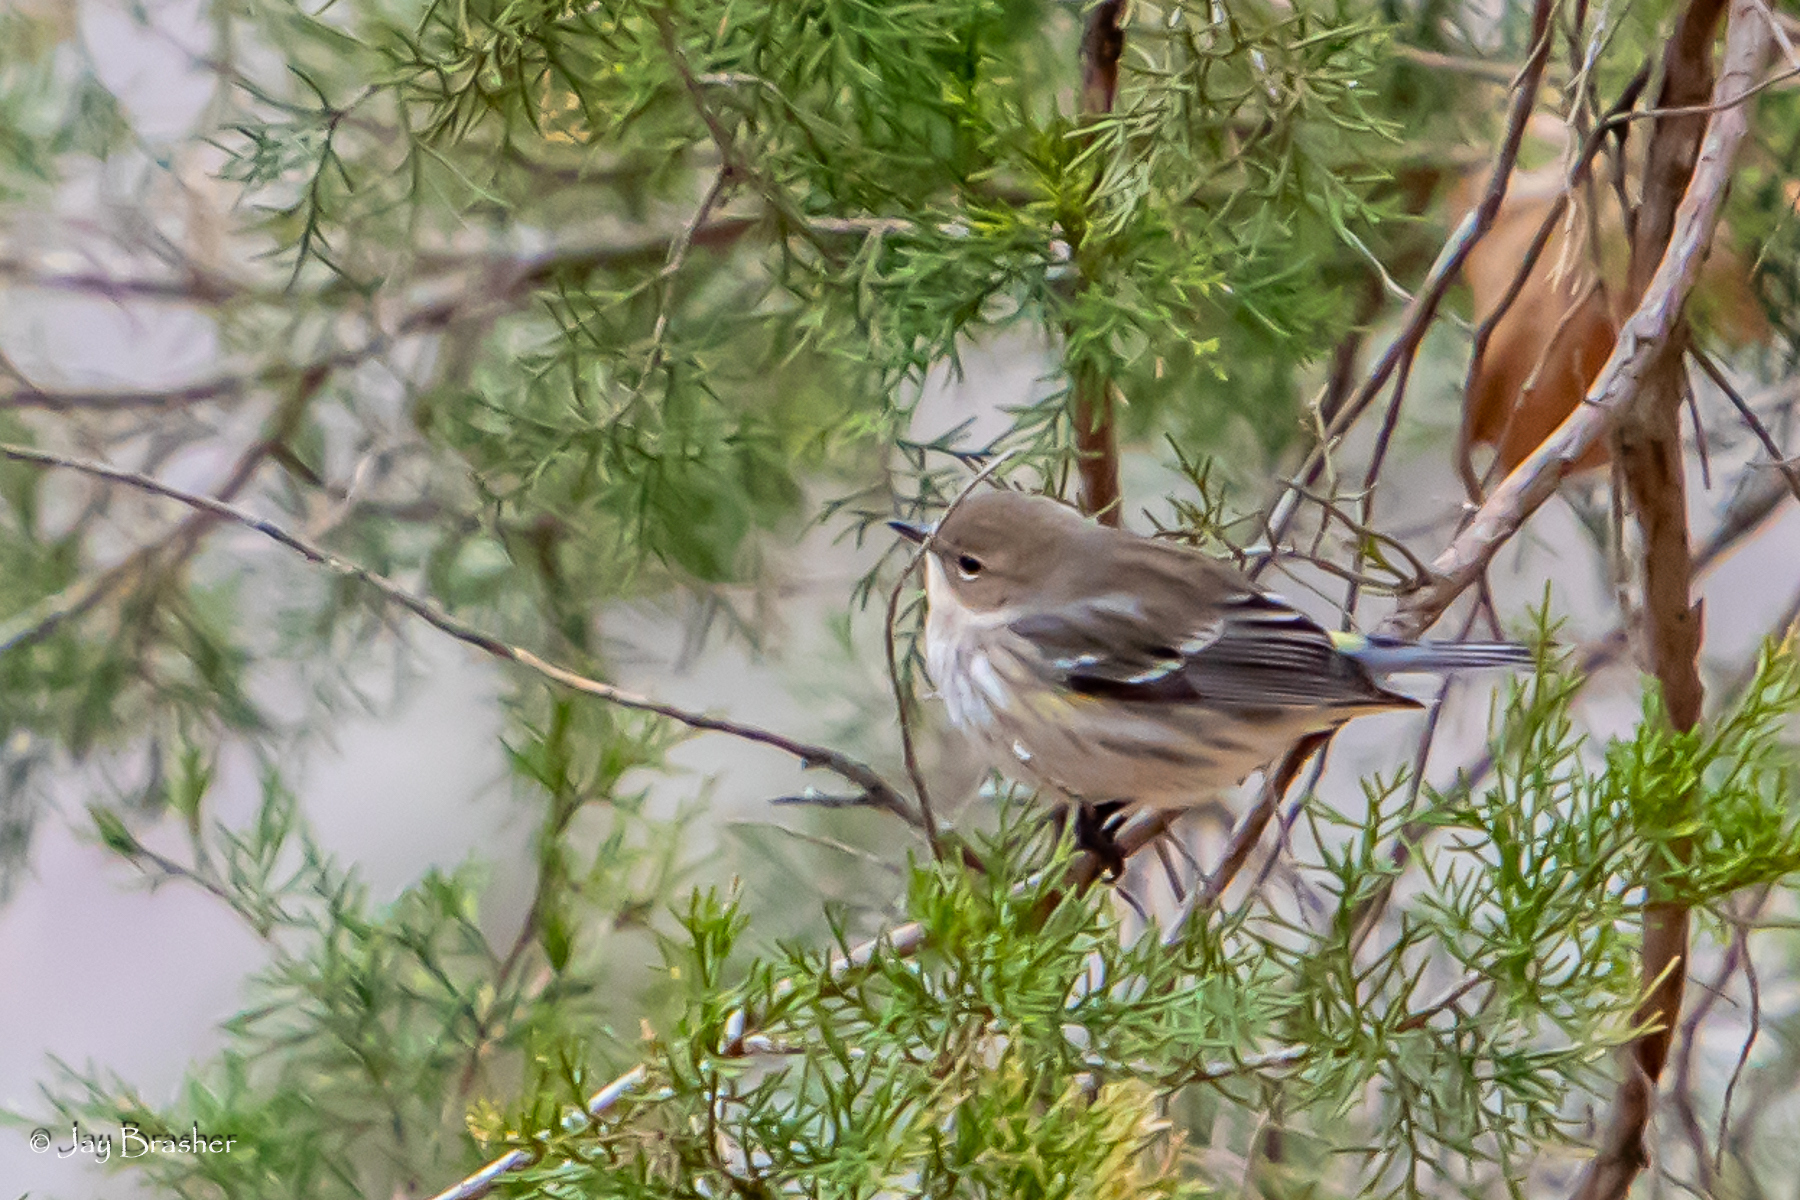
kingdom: Animalia
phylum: Chordata
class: Aves
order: Passeriformes
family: Parulidae
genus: Setophaga
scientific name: Setophaga coronata
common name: Myrtle warbler
